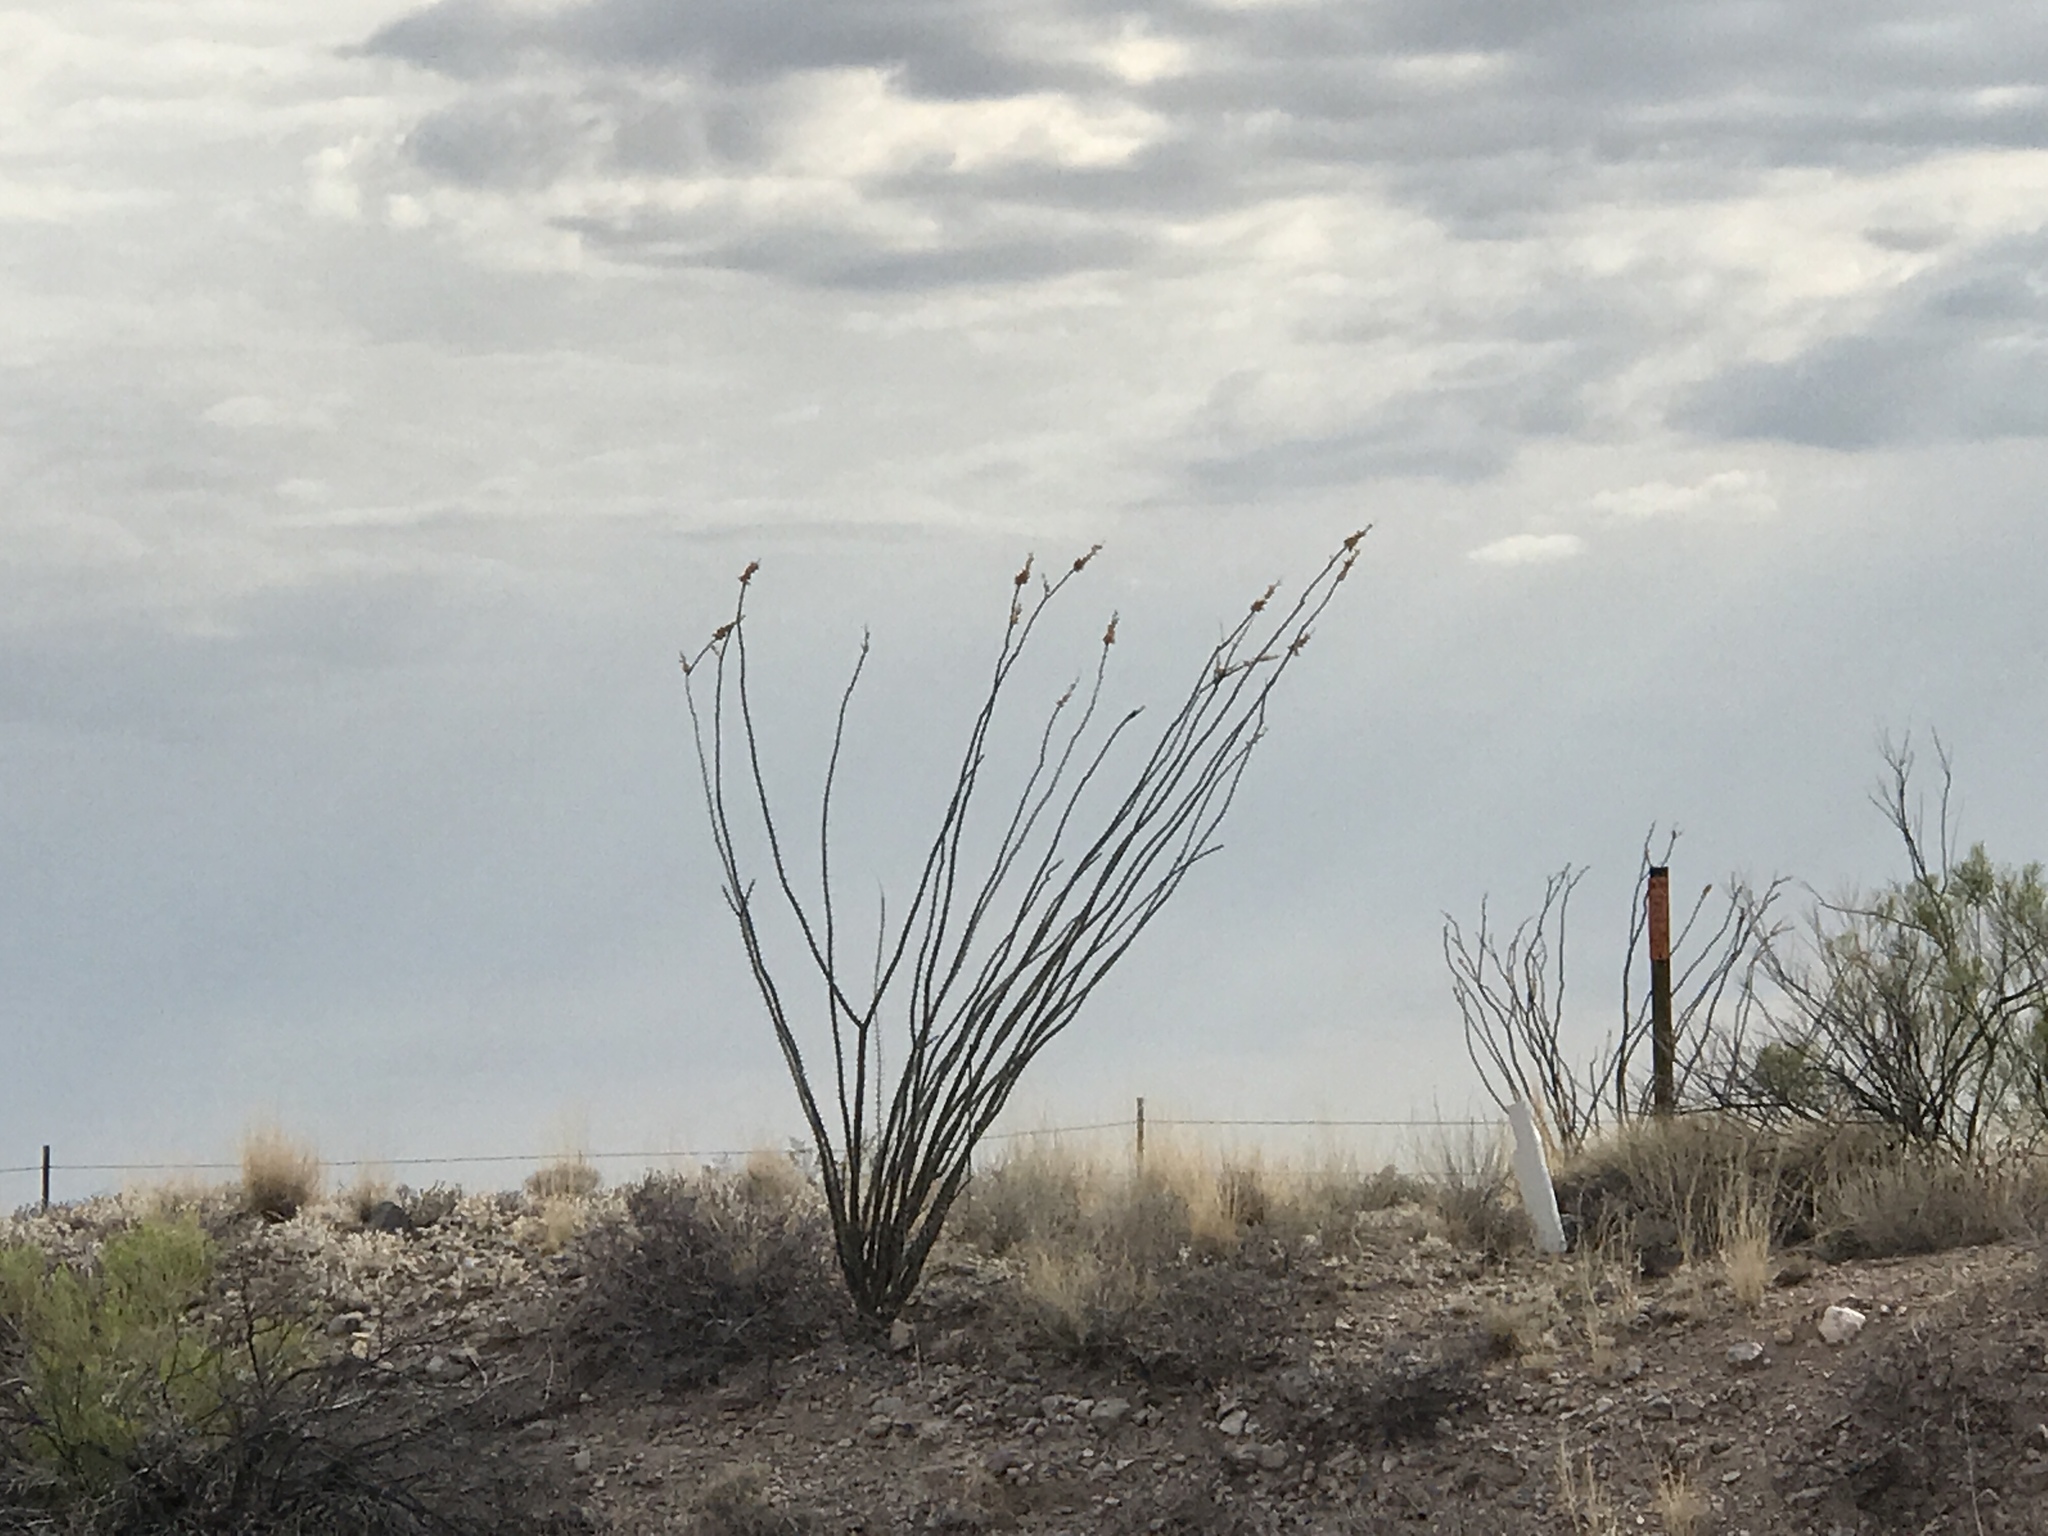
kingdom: Plantae
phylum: Tracheophyta
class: Magnoliopsida
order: Ericales
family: Fouquieriaceae
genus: Fouquieria
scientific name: Fouquieria splendens
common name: Vine-cactus
